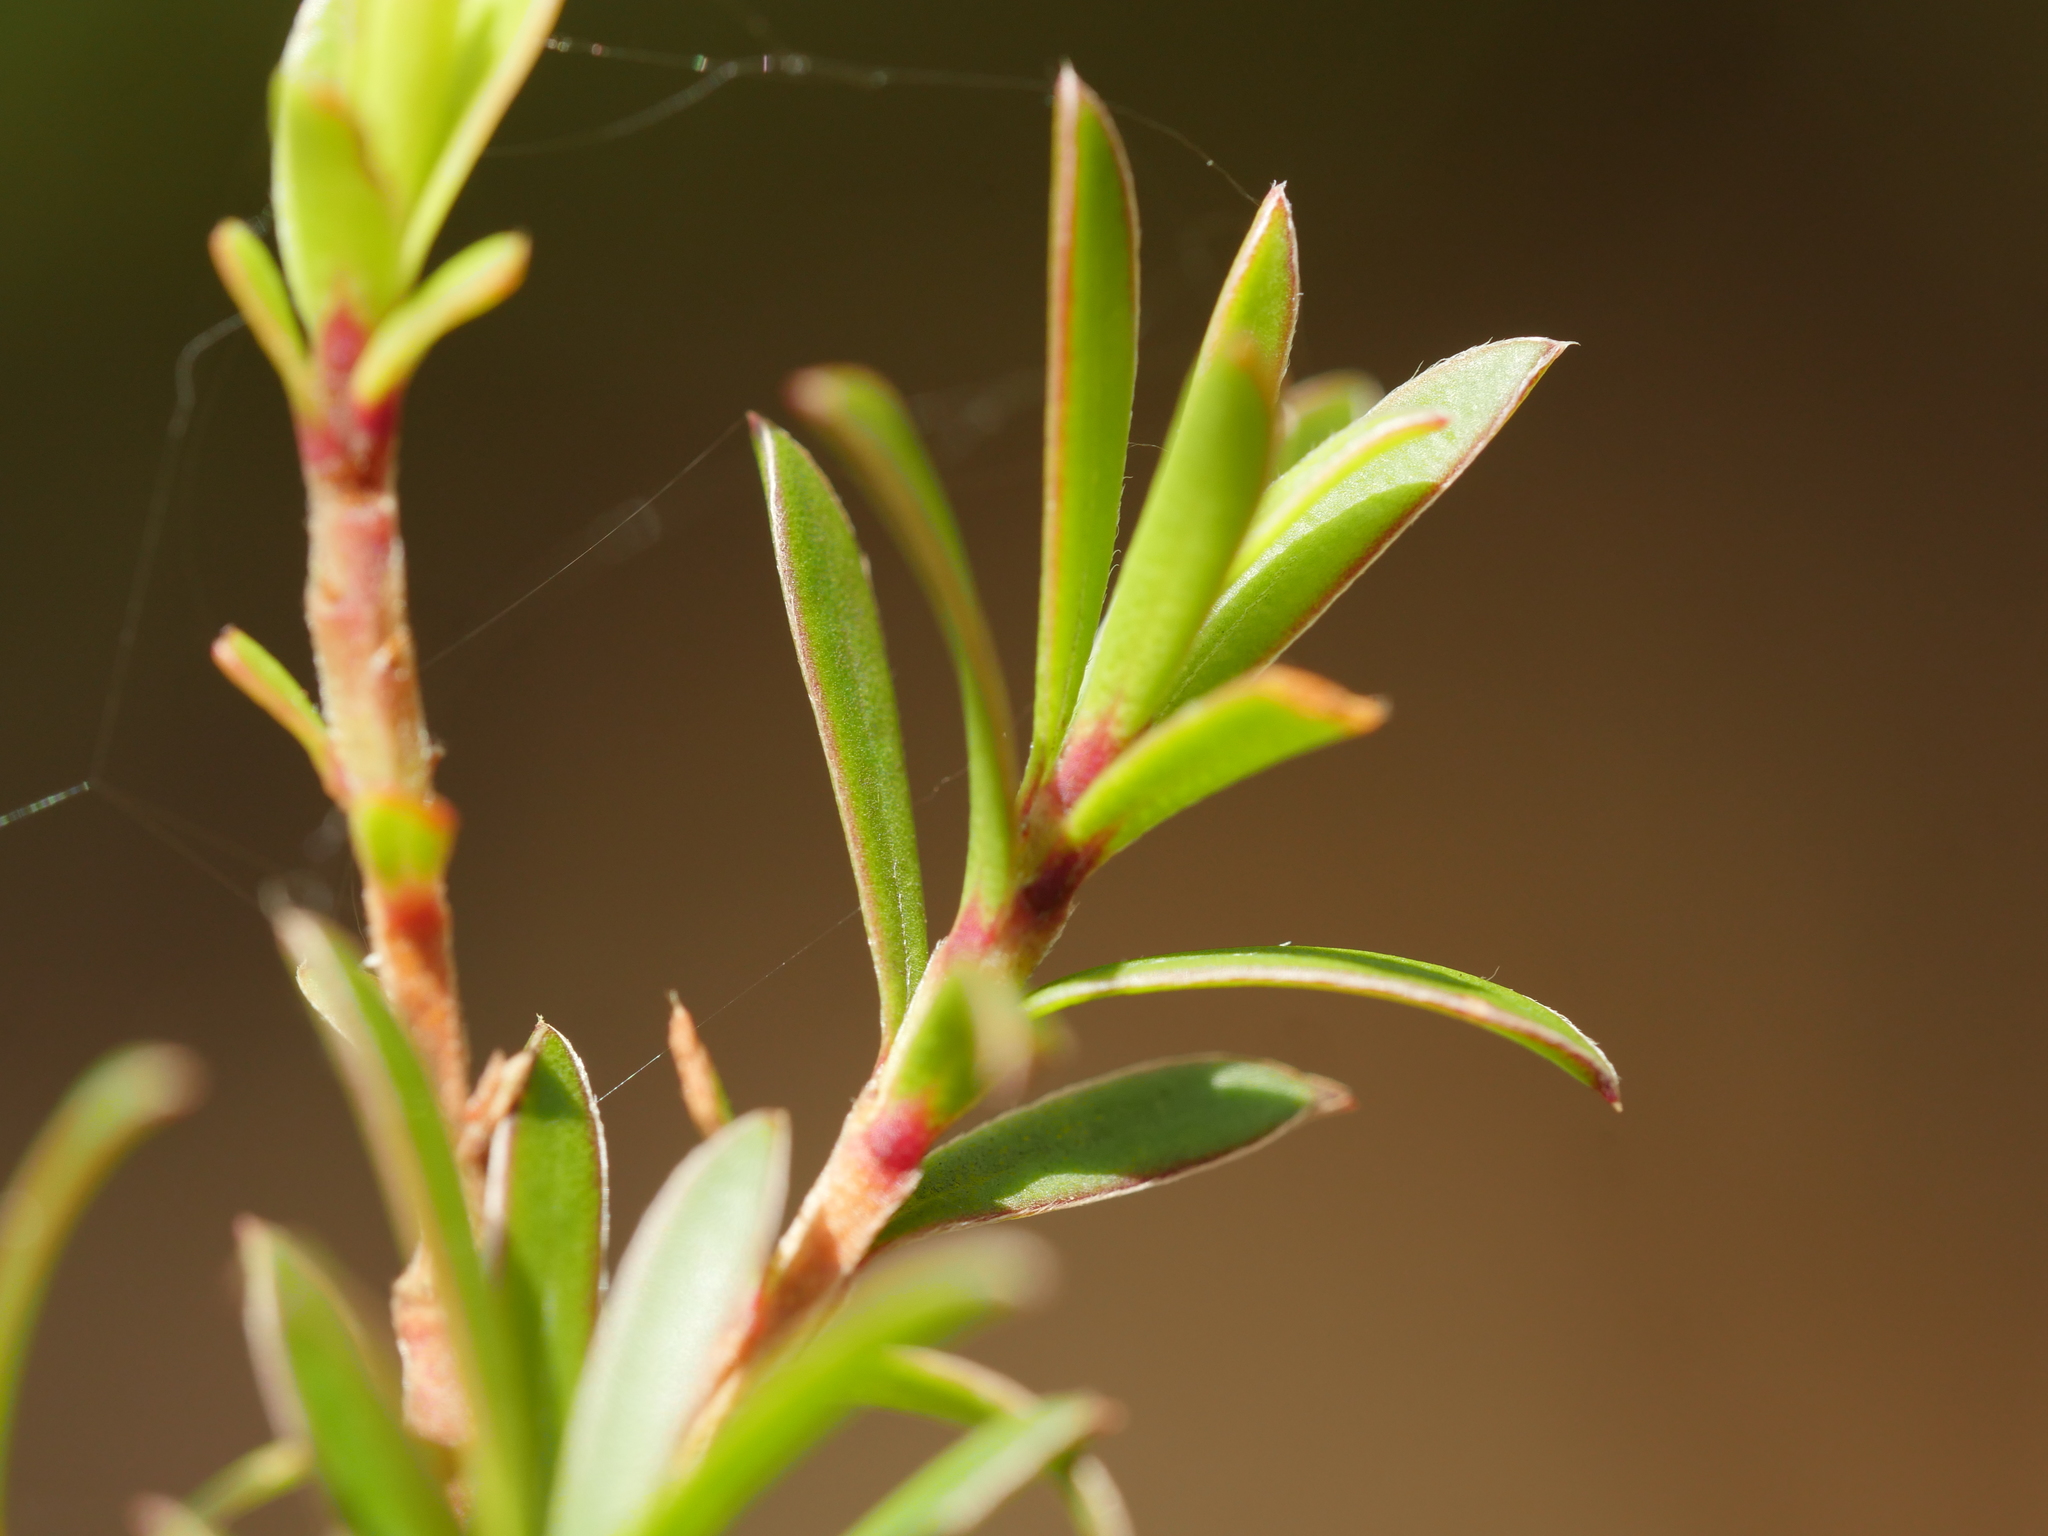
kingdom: Plantae
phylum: Tracheophyta
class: Magnoliopsida
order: Myrtales
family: Myrtaceae
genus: Kunzea
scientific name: Kunzea robusta
